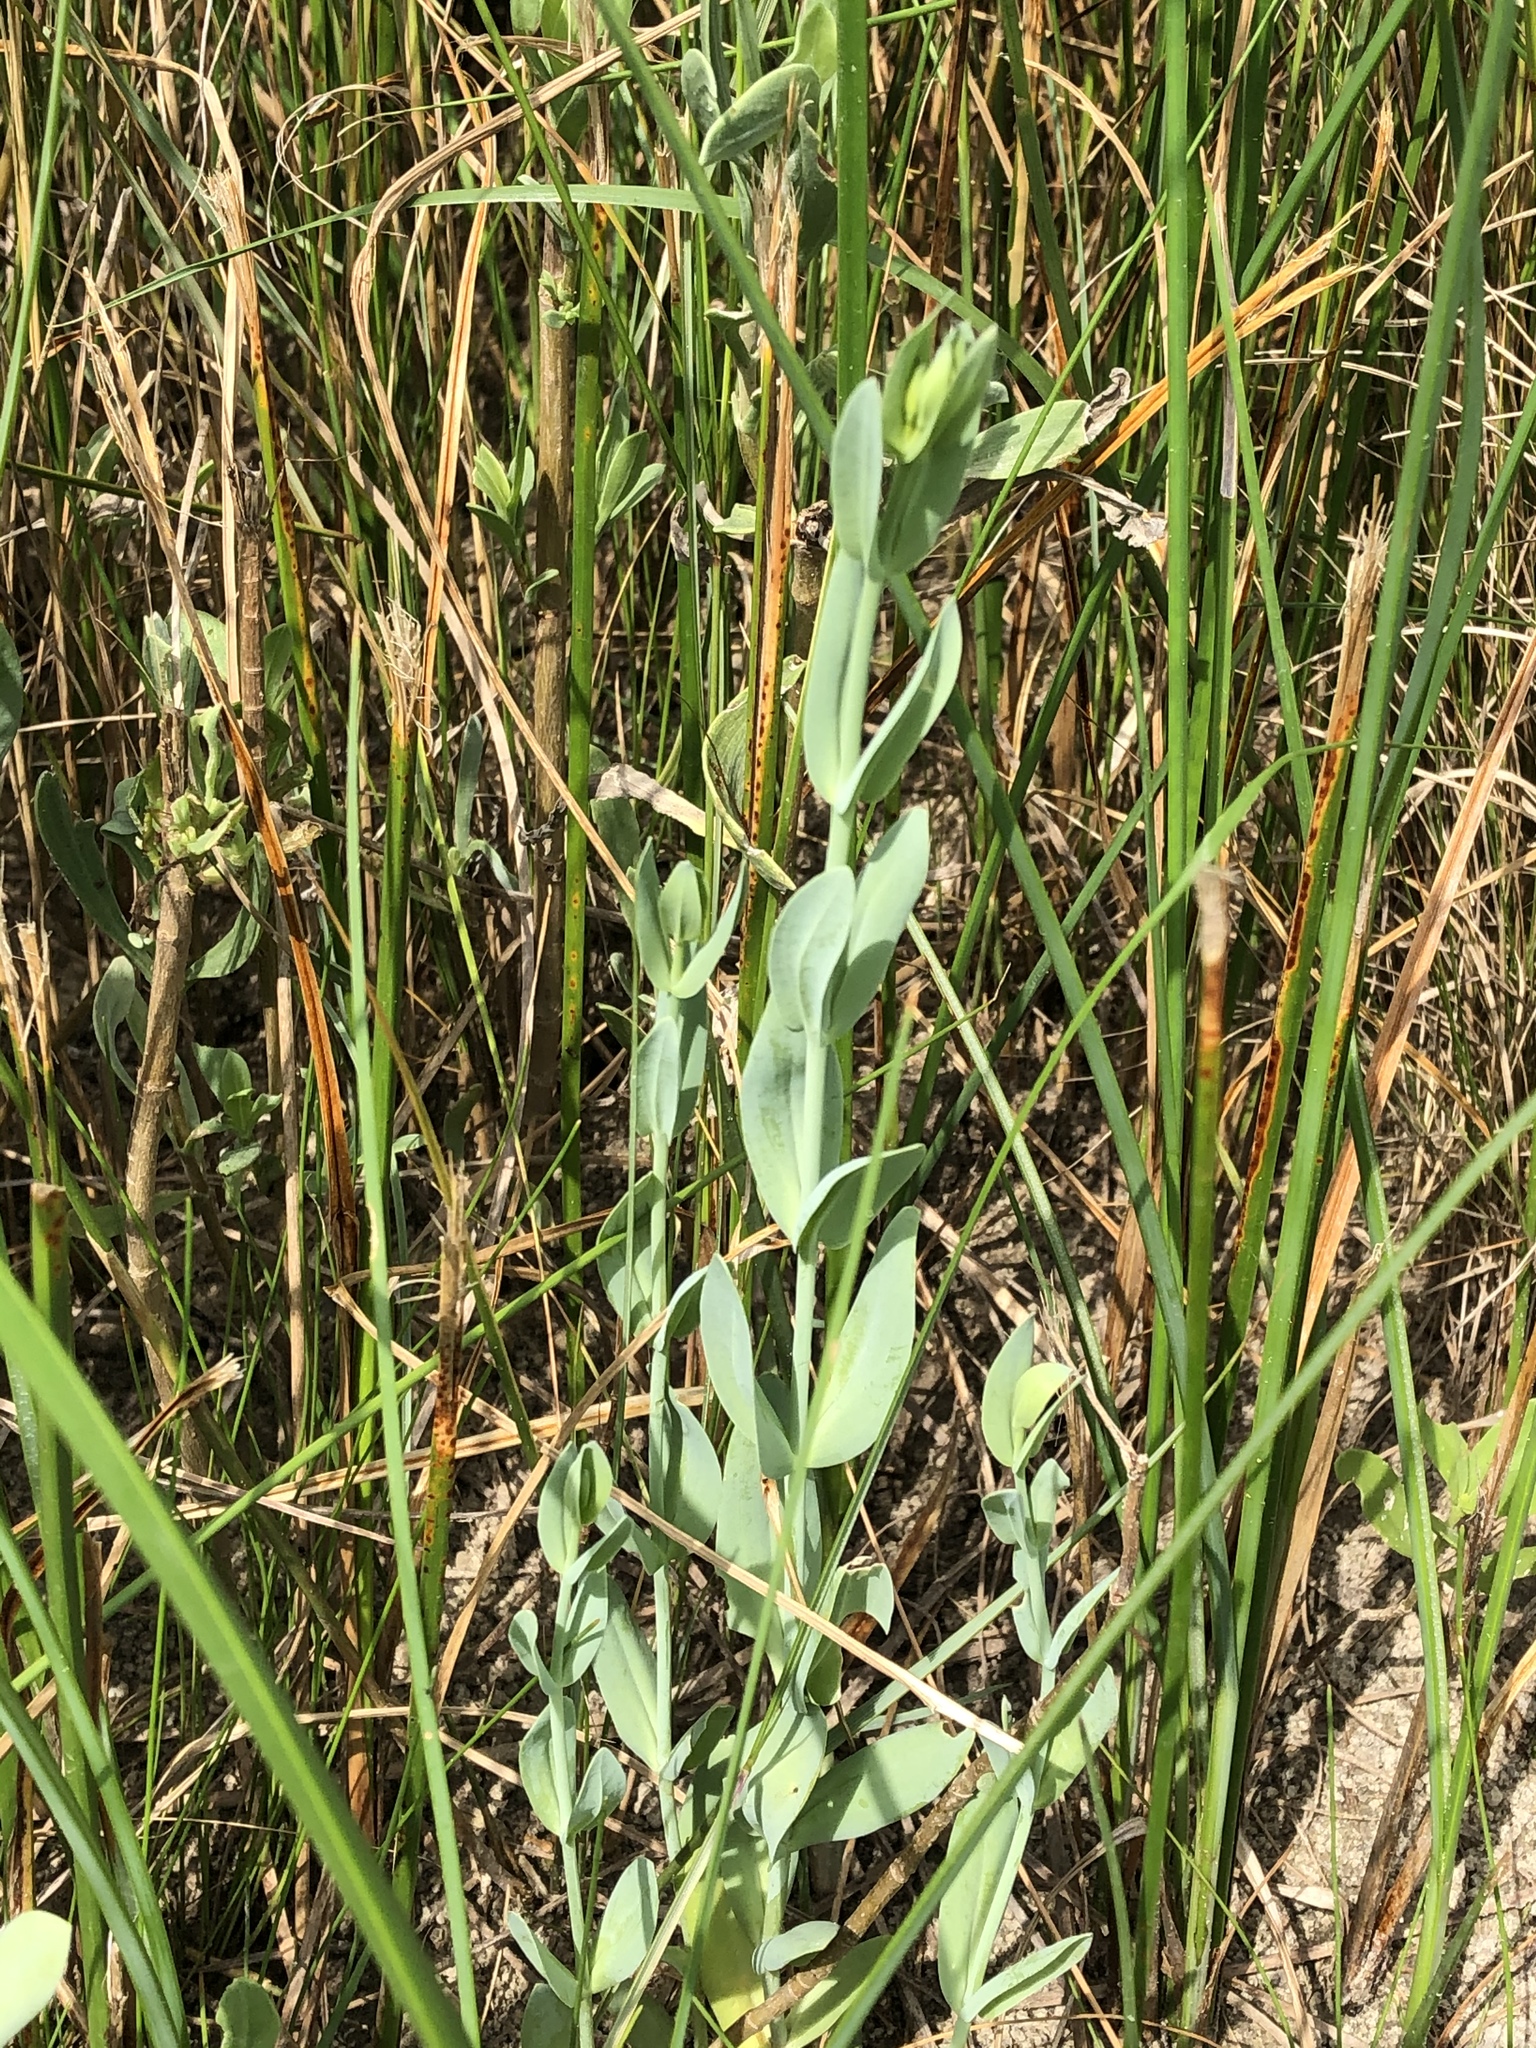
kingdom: Plantae
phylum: Tracheophyta
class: Magnoliopsida
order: Gentianales
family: Gentianaceae
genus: Eustoma
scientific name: Eustoma exaltatum
